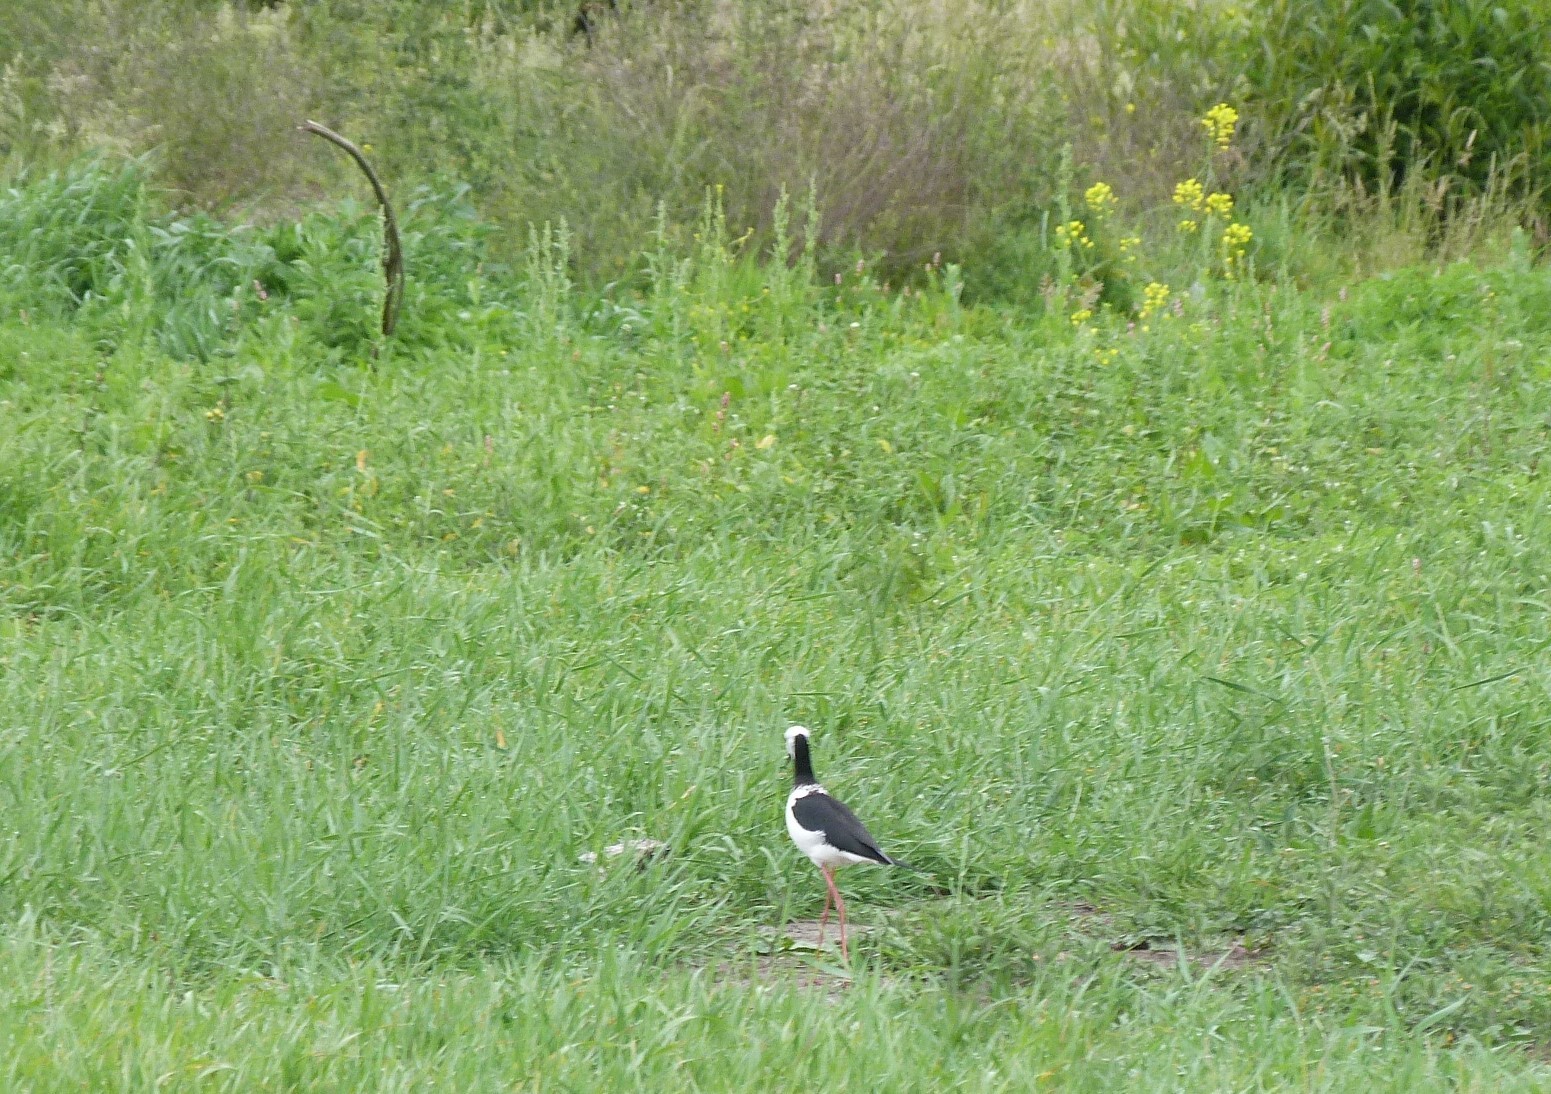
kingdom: Animalia
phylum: Chordata
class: Aves
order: Charadriiformes
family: Recurvirostridae
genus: Himantopus
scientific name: Himantopus leucocephalus
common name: White-headed stilt
